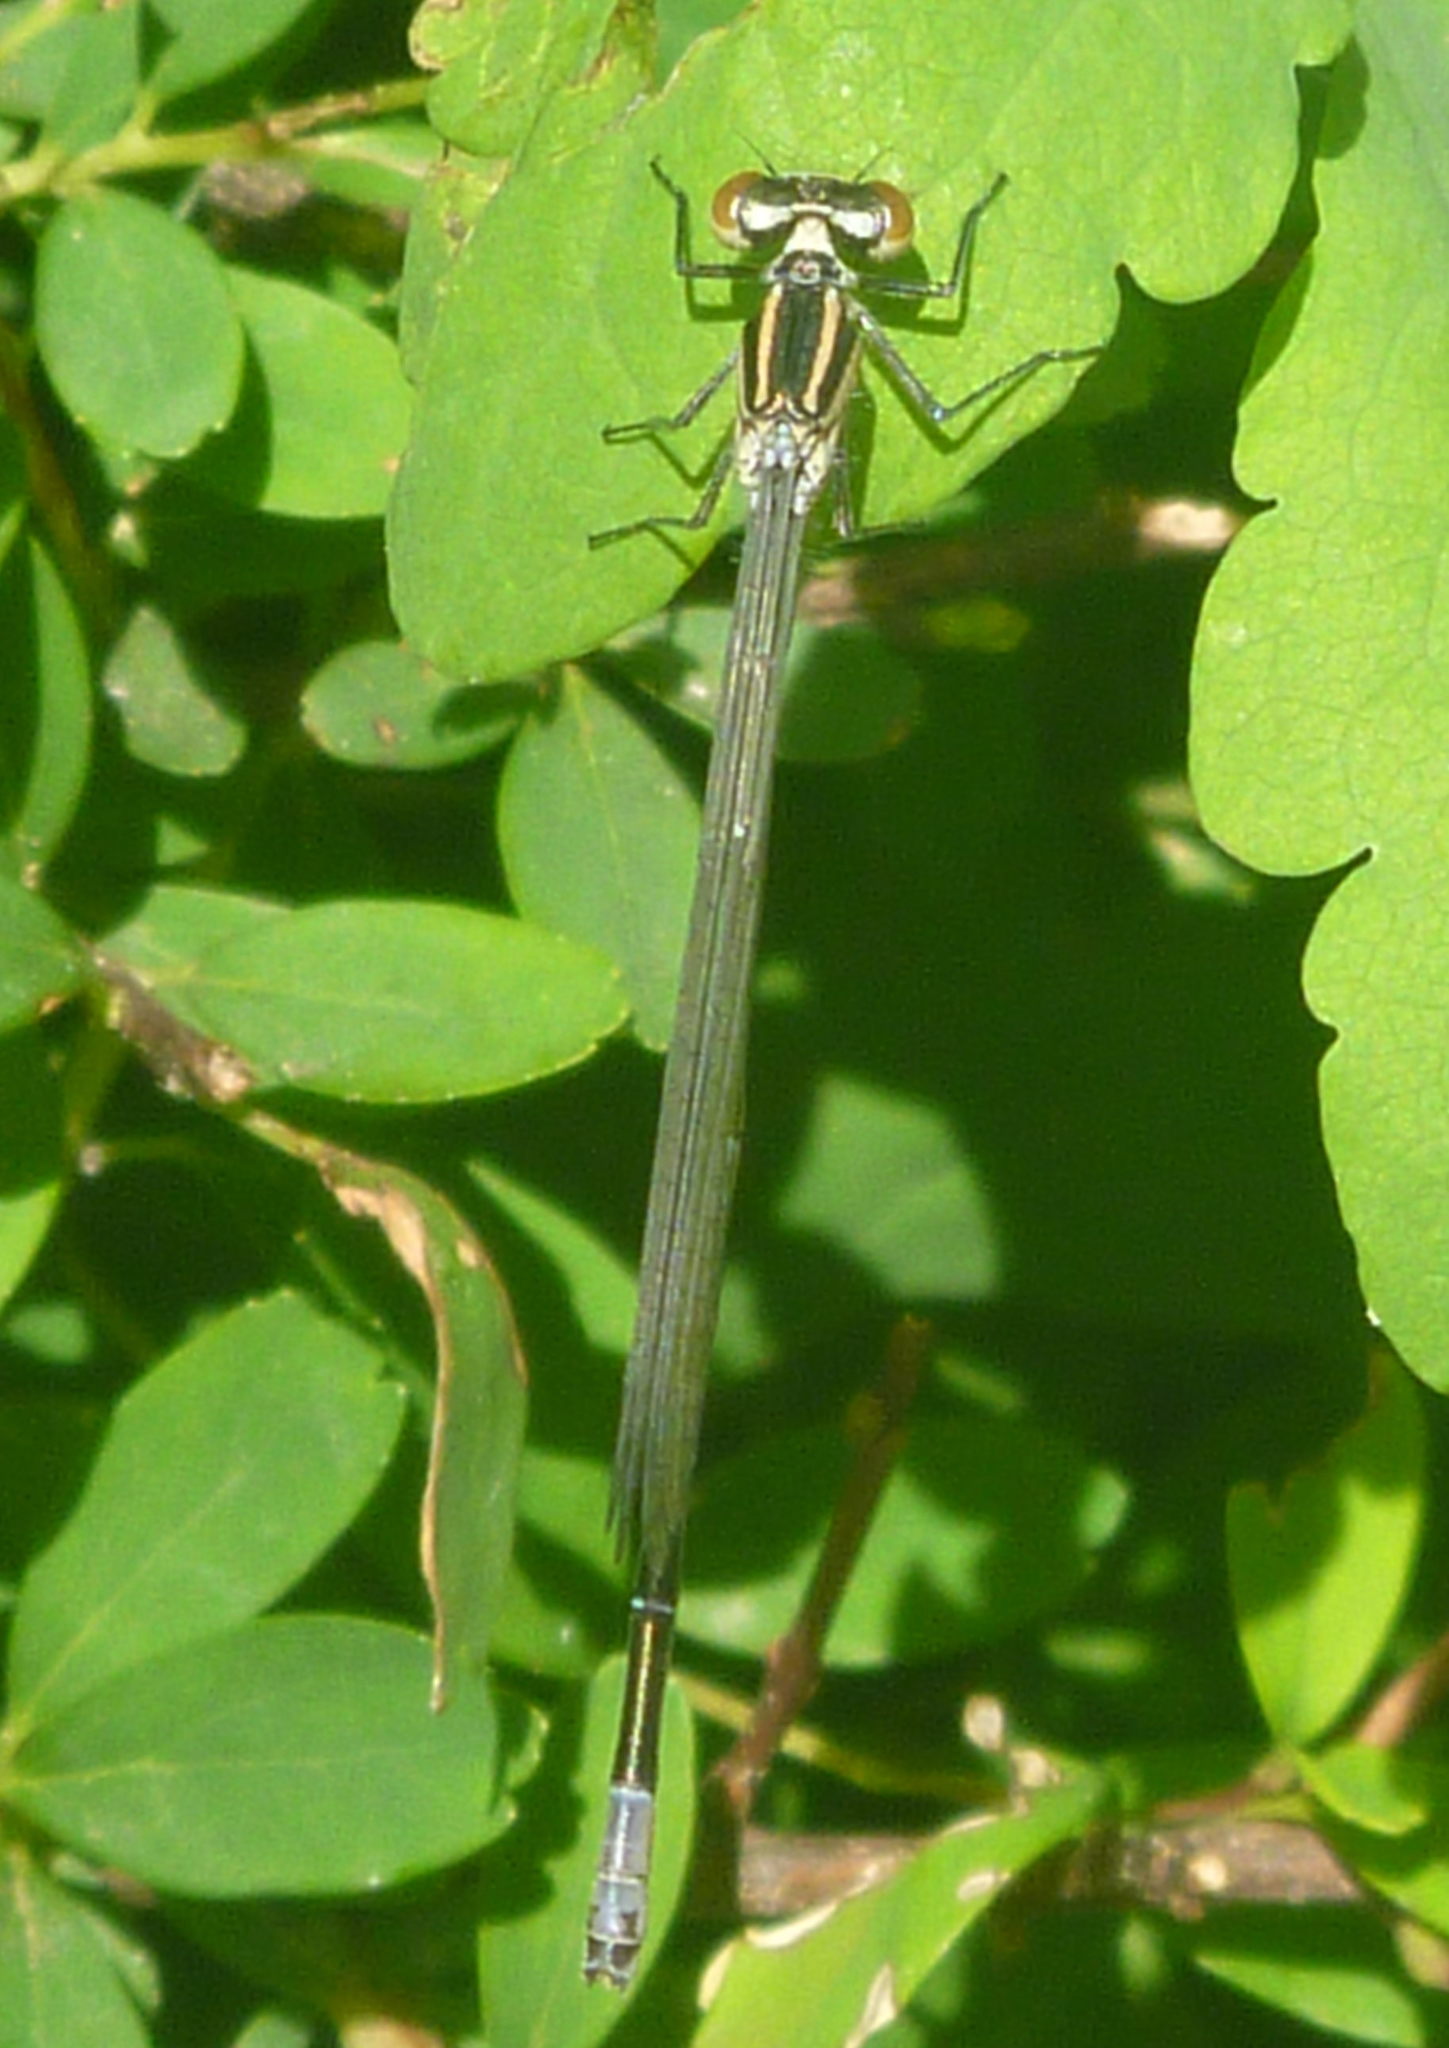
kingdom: Animalia
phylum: Arthropoda
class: Insecta
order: Odonata
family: Coenagrionidae
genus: Coenagrion
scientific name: Coenagrion puella
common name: Azure damselfly
